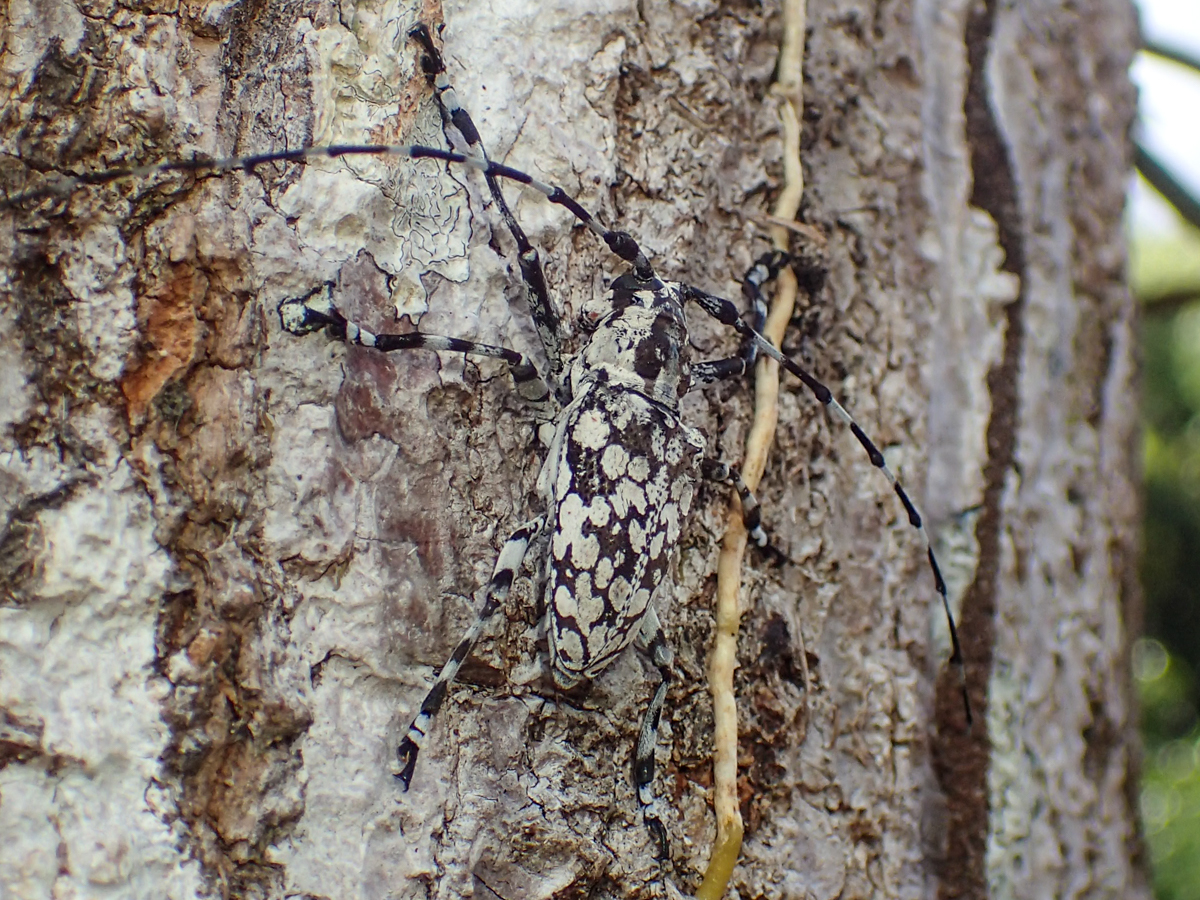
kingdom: Animalia
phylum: Arthropoda
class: Insecta
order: Coleoptera
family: Cerambycidae
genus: Palimna
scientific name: Palimna annulata
